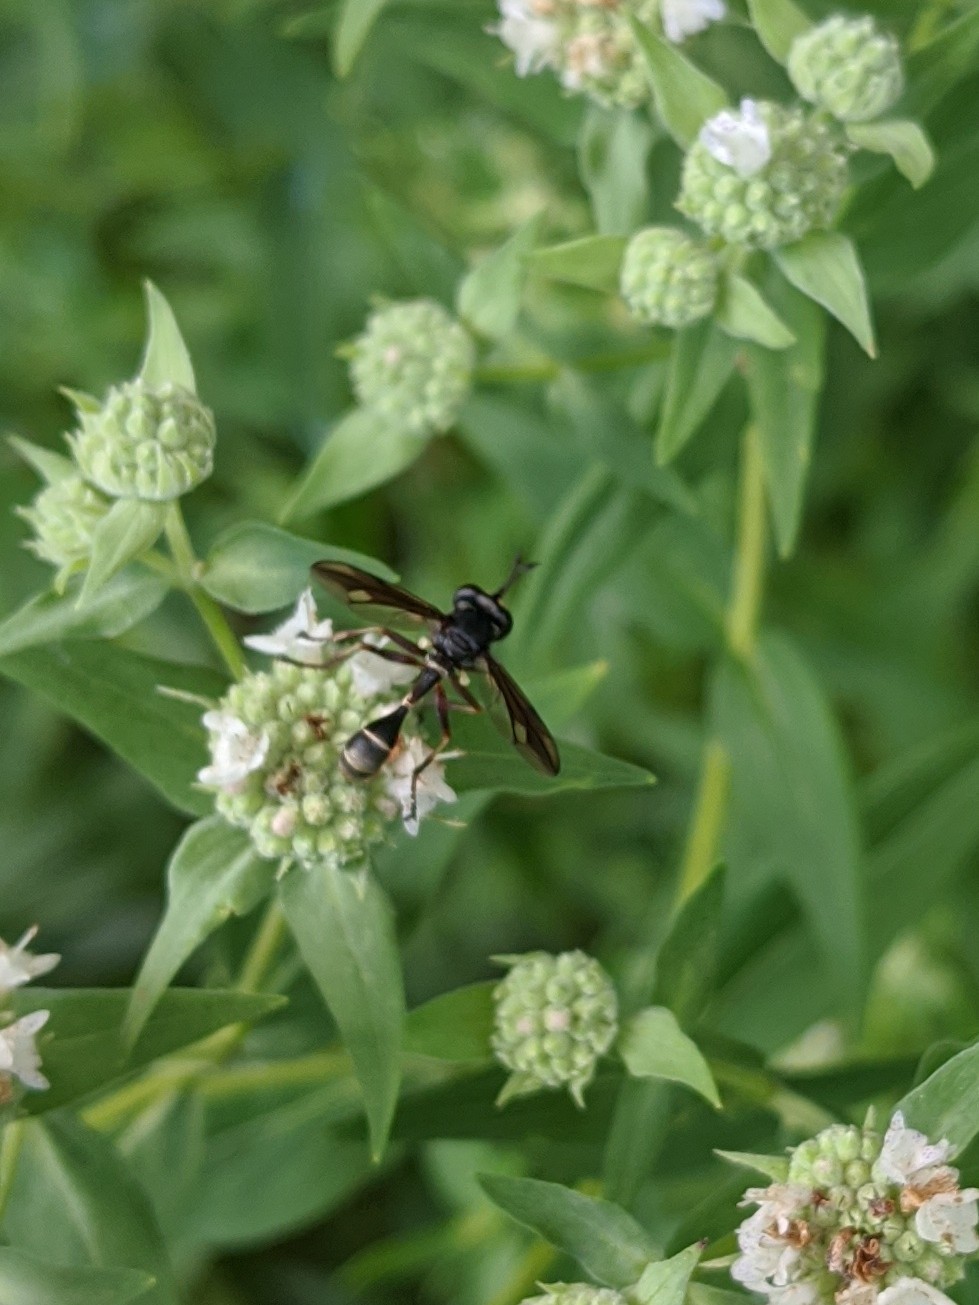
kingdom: Animalia
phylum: Arthropoda
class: Insecta
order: Diptera
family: Conopidae
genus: Physocephala
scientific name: Physocephala furcillata
